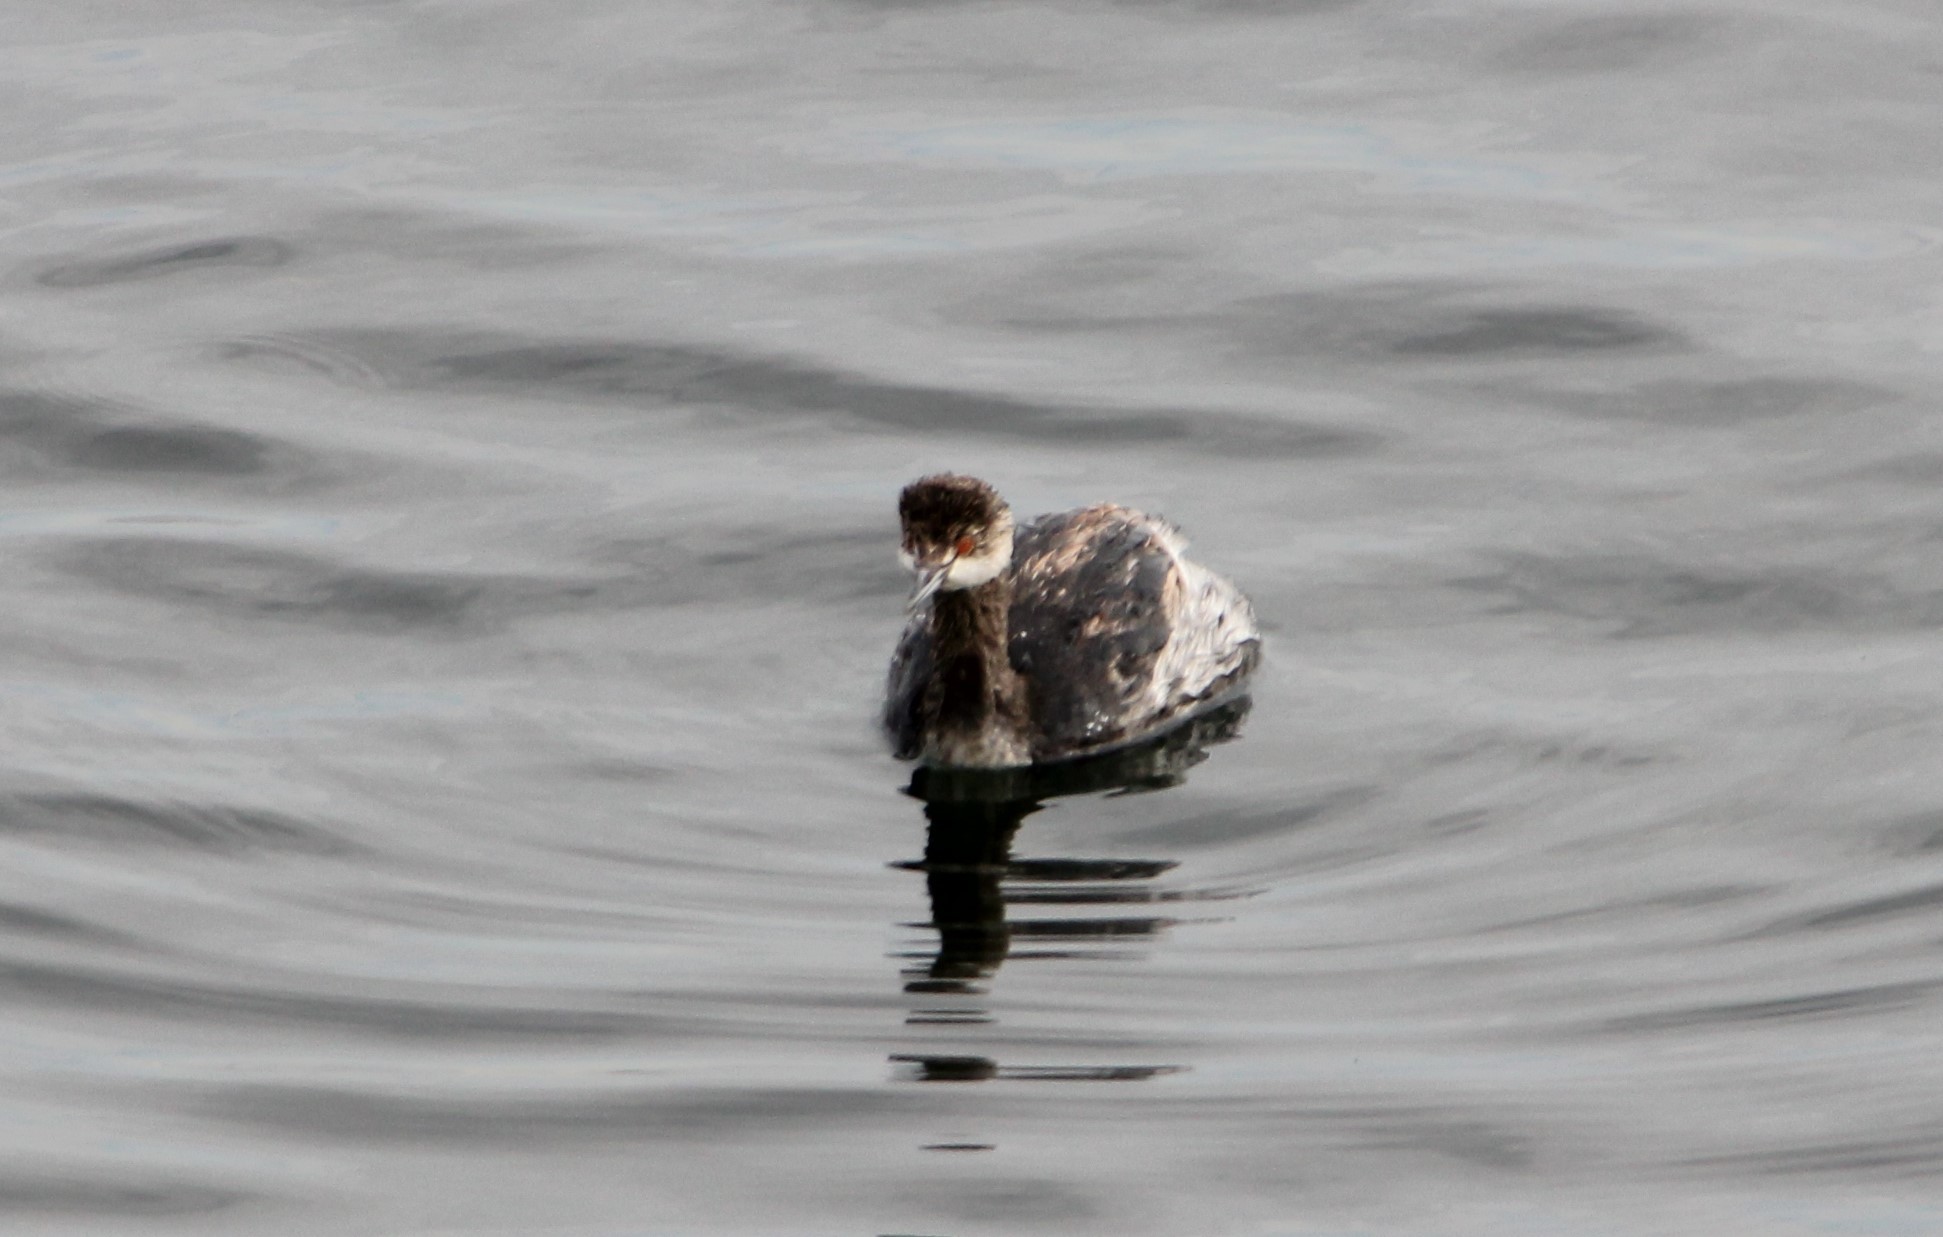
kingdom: Animalia
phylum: Chordata
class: Aves
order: Podicipediformes
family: Podicipedidae
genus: Podiceps
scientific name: Podiceps nigricollis
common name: Black-necked grebe
